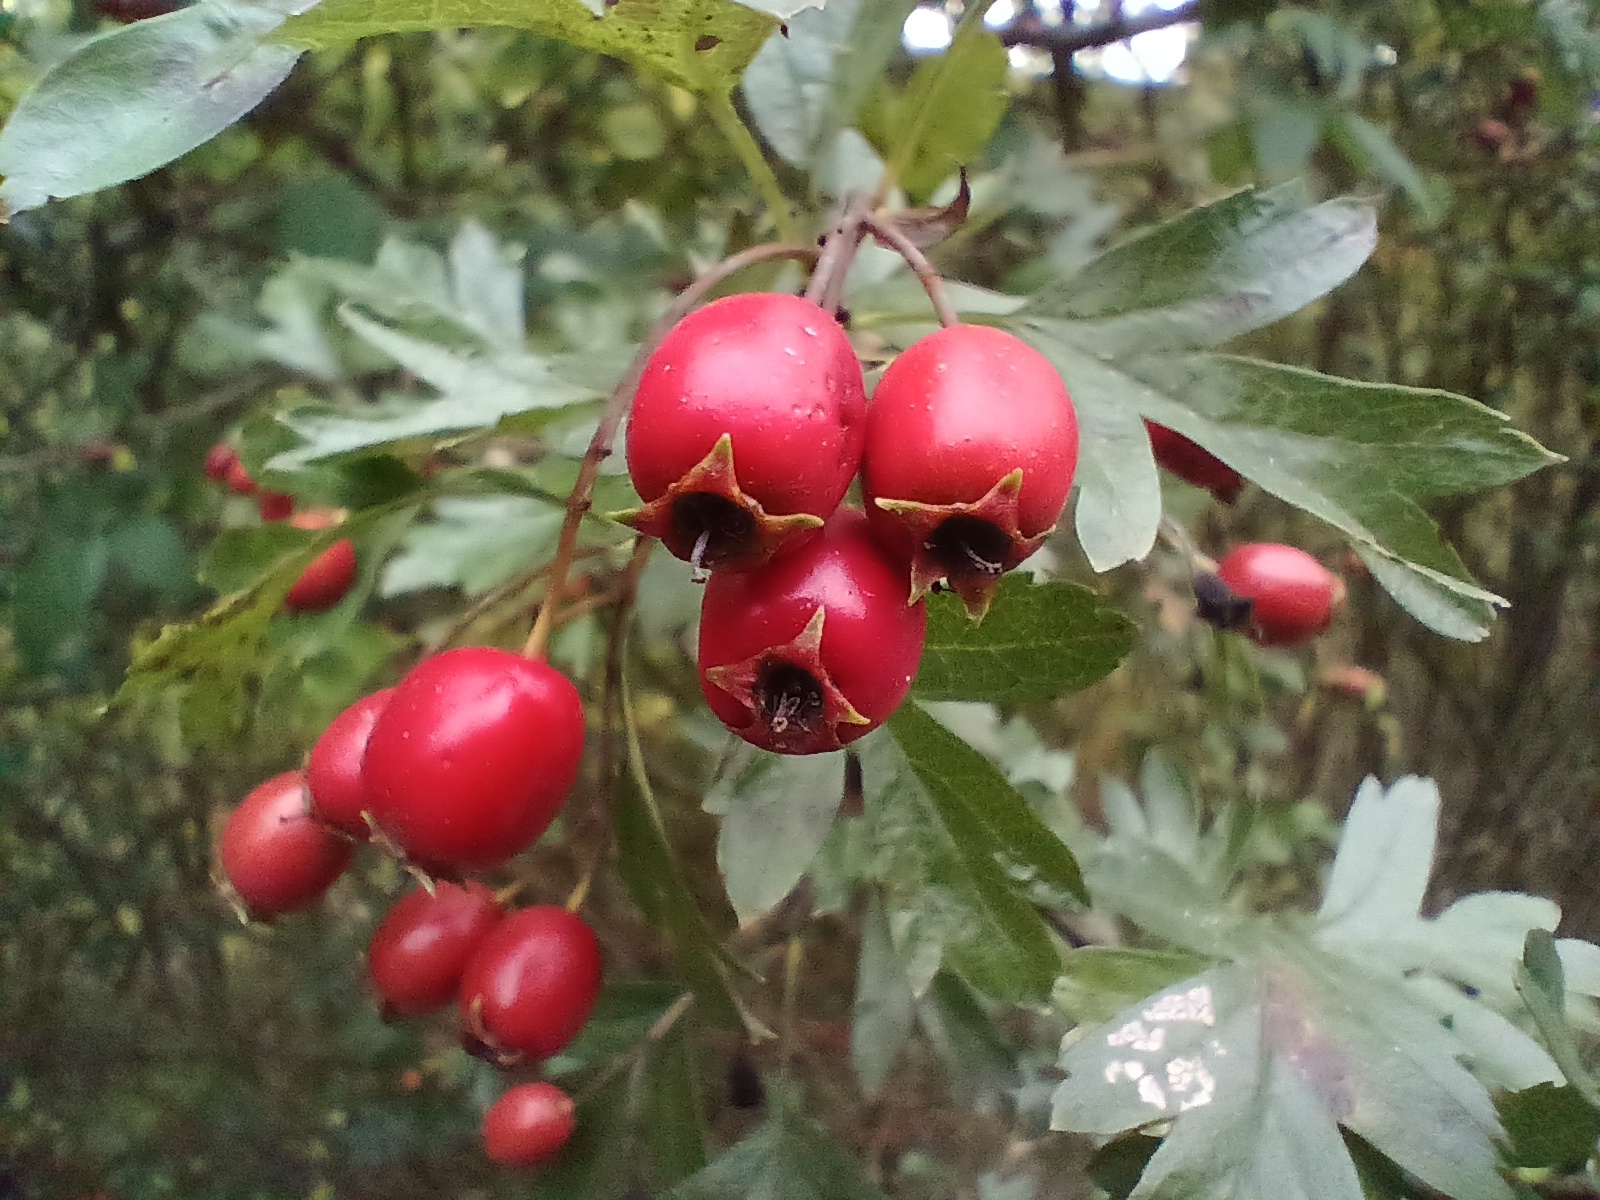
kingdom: Plantae
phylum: Tracheophyta
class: Magnoliopsida
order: Rosales
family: Rosaceae
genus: Crataegus
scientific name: Crataegus monogyna
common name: Hawthorn
